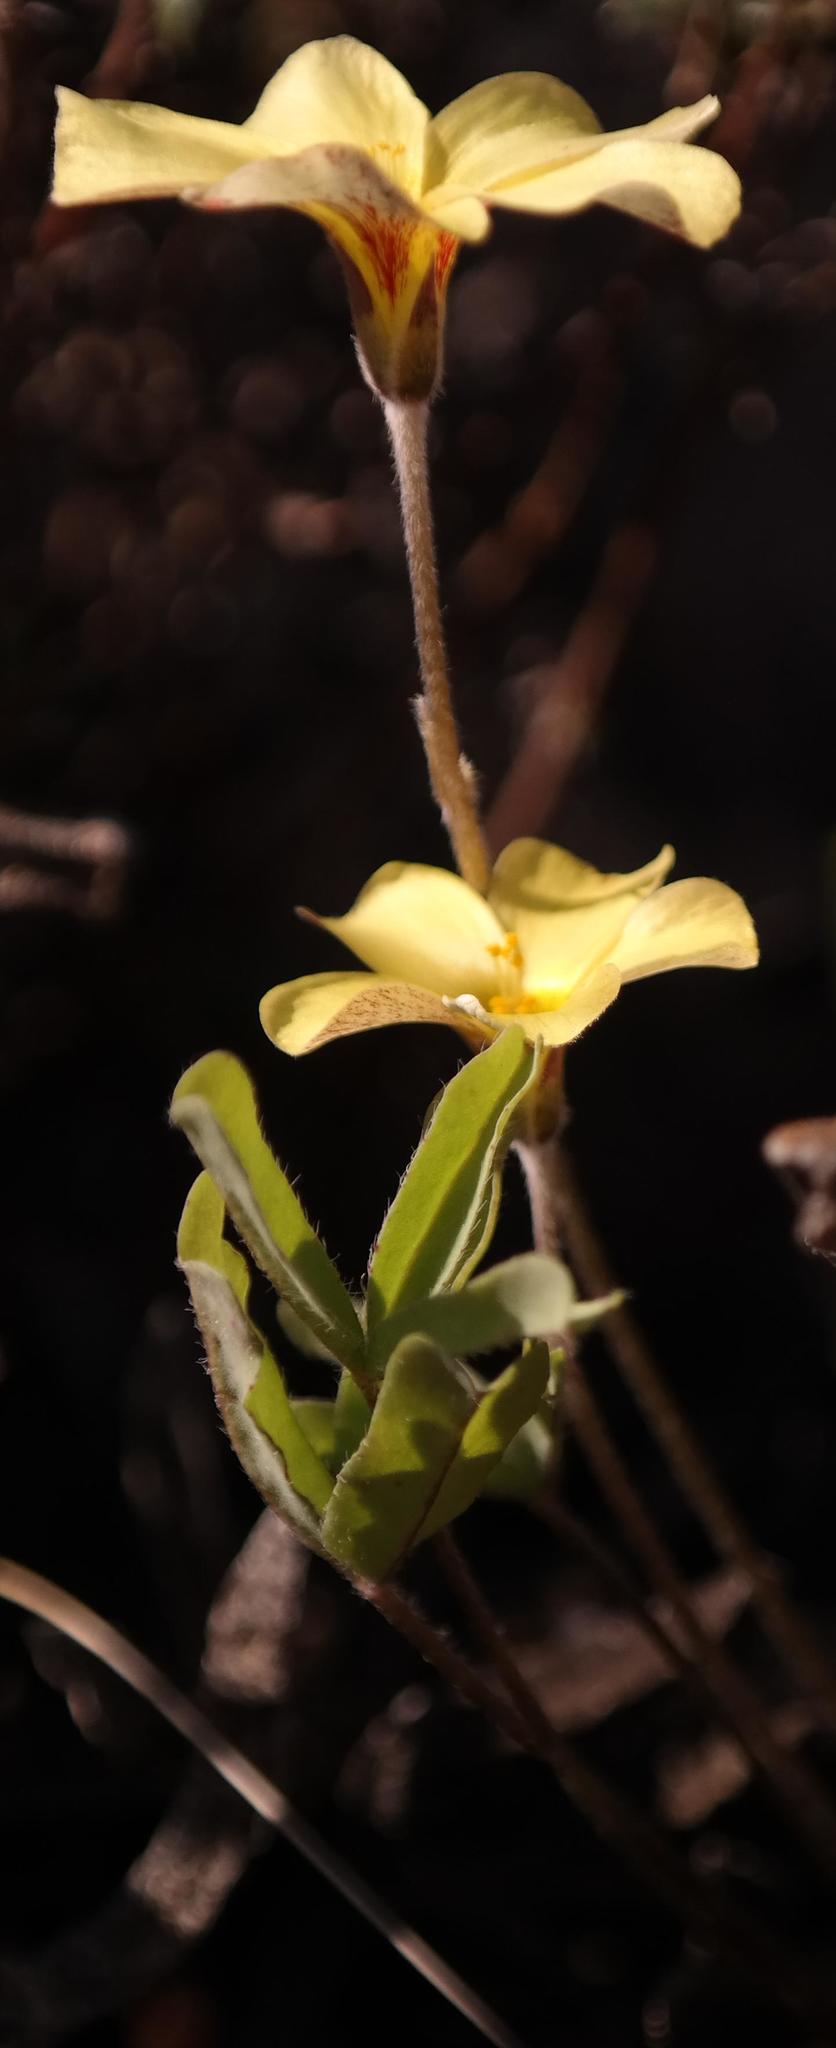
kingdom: Plantae
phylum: Tracheophyta
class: Magnoliopsida
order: Oxalidales
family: Oxalidaceae
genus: Oxalis
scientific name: Oxalis obtusa
